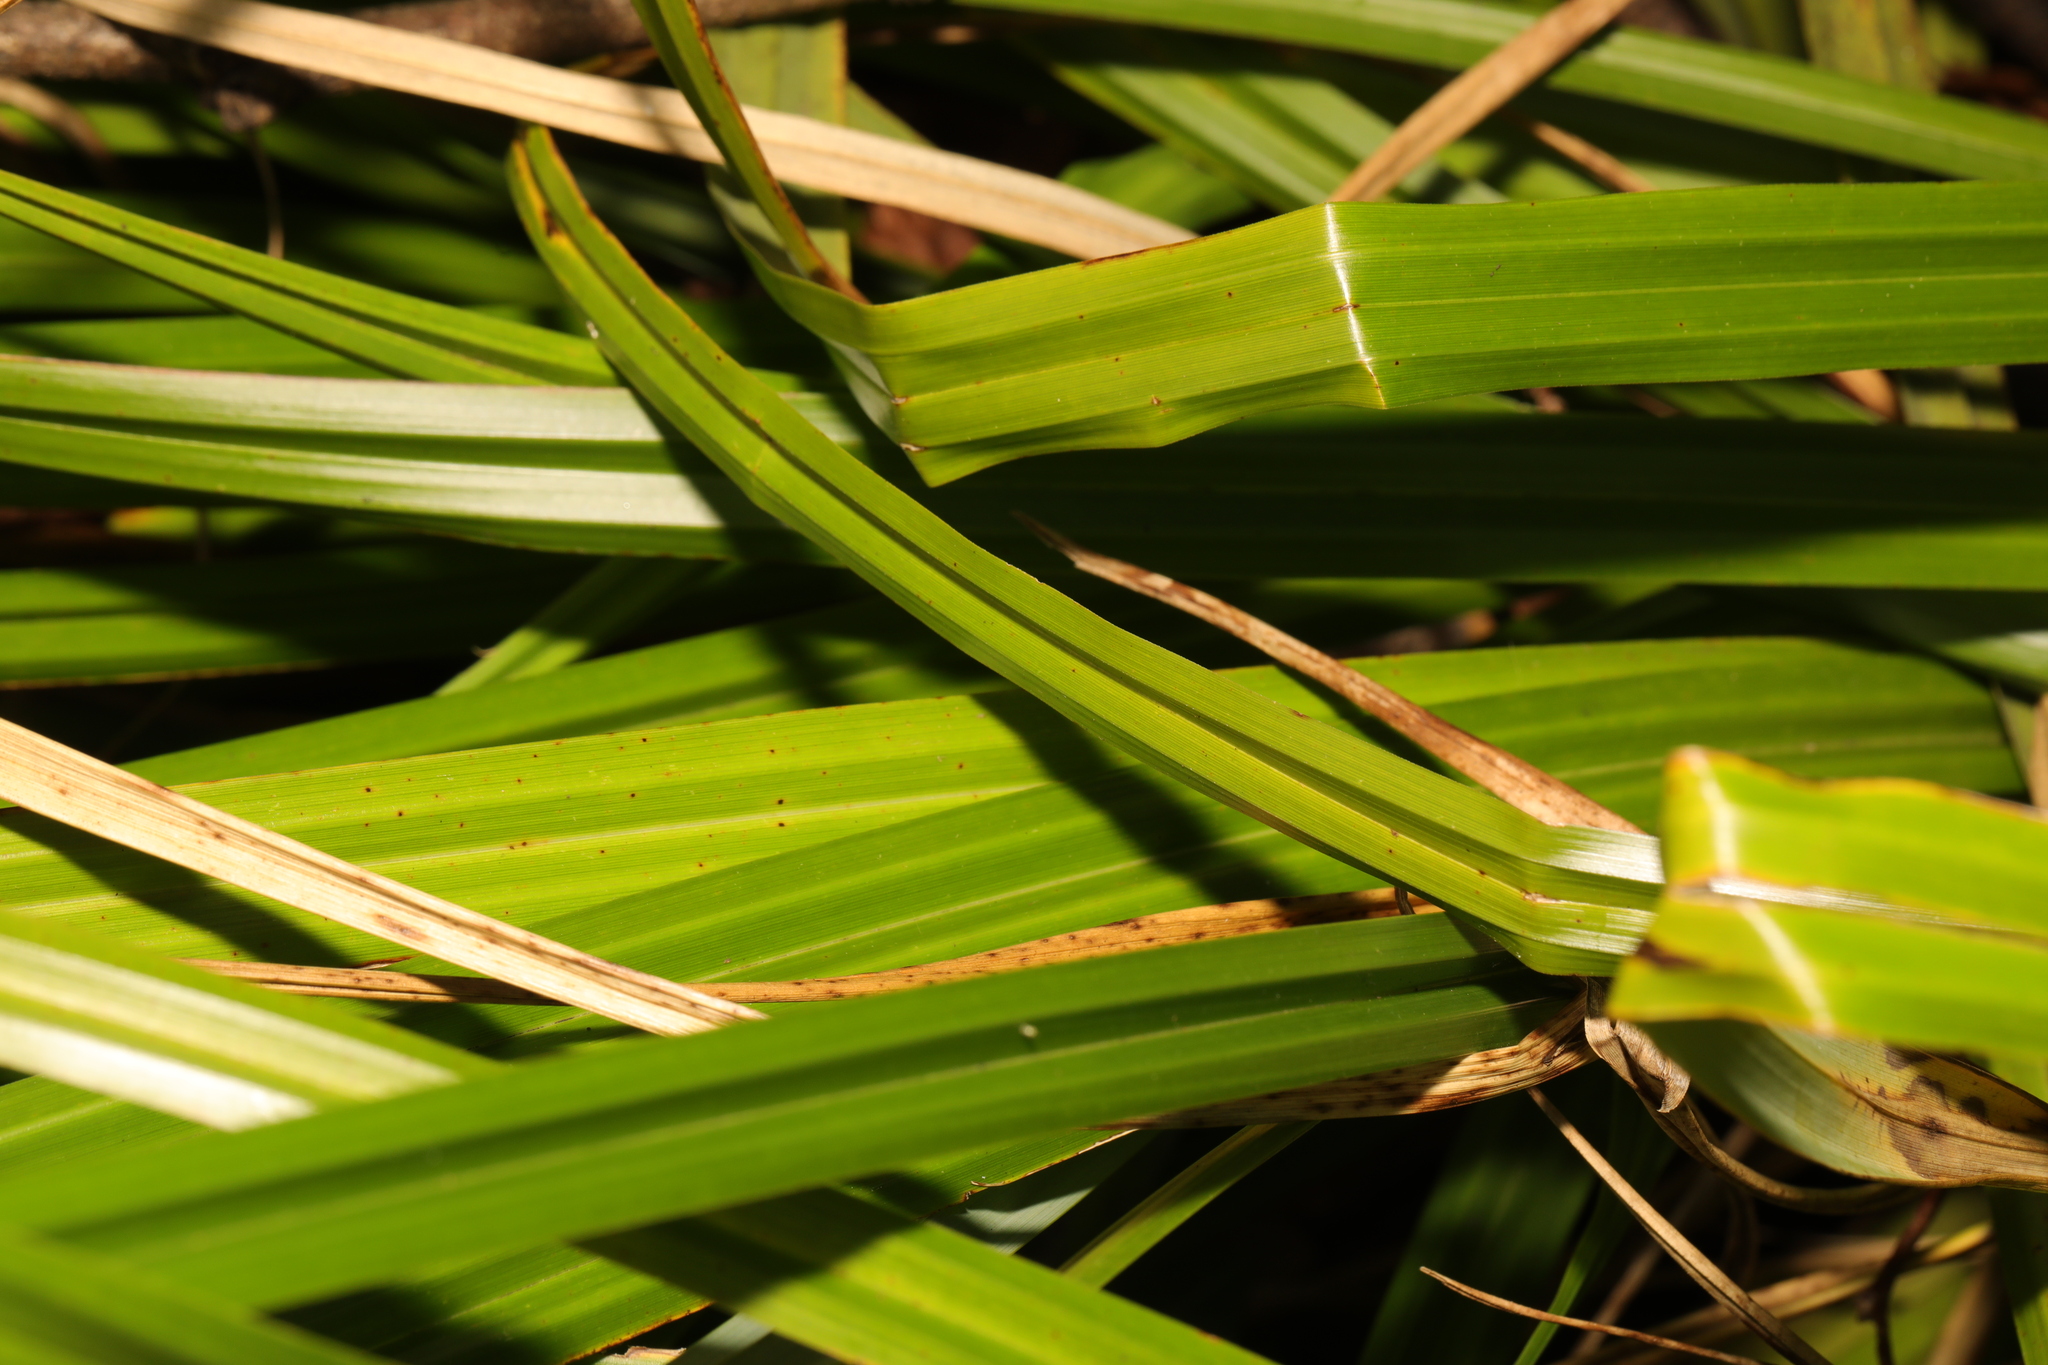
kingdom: Plantae
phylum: Tracheophyta
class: Liliopsida
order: Poales
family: Cyperaceae
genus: Carex
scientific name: Carex pendula
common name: Pendulous sedge
